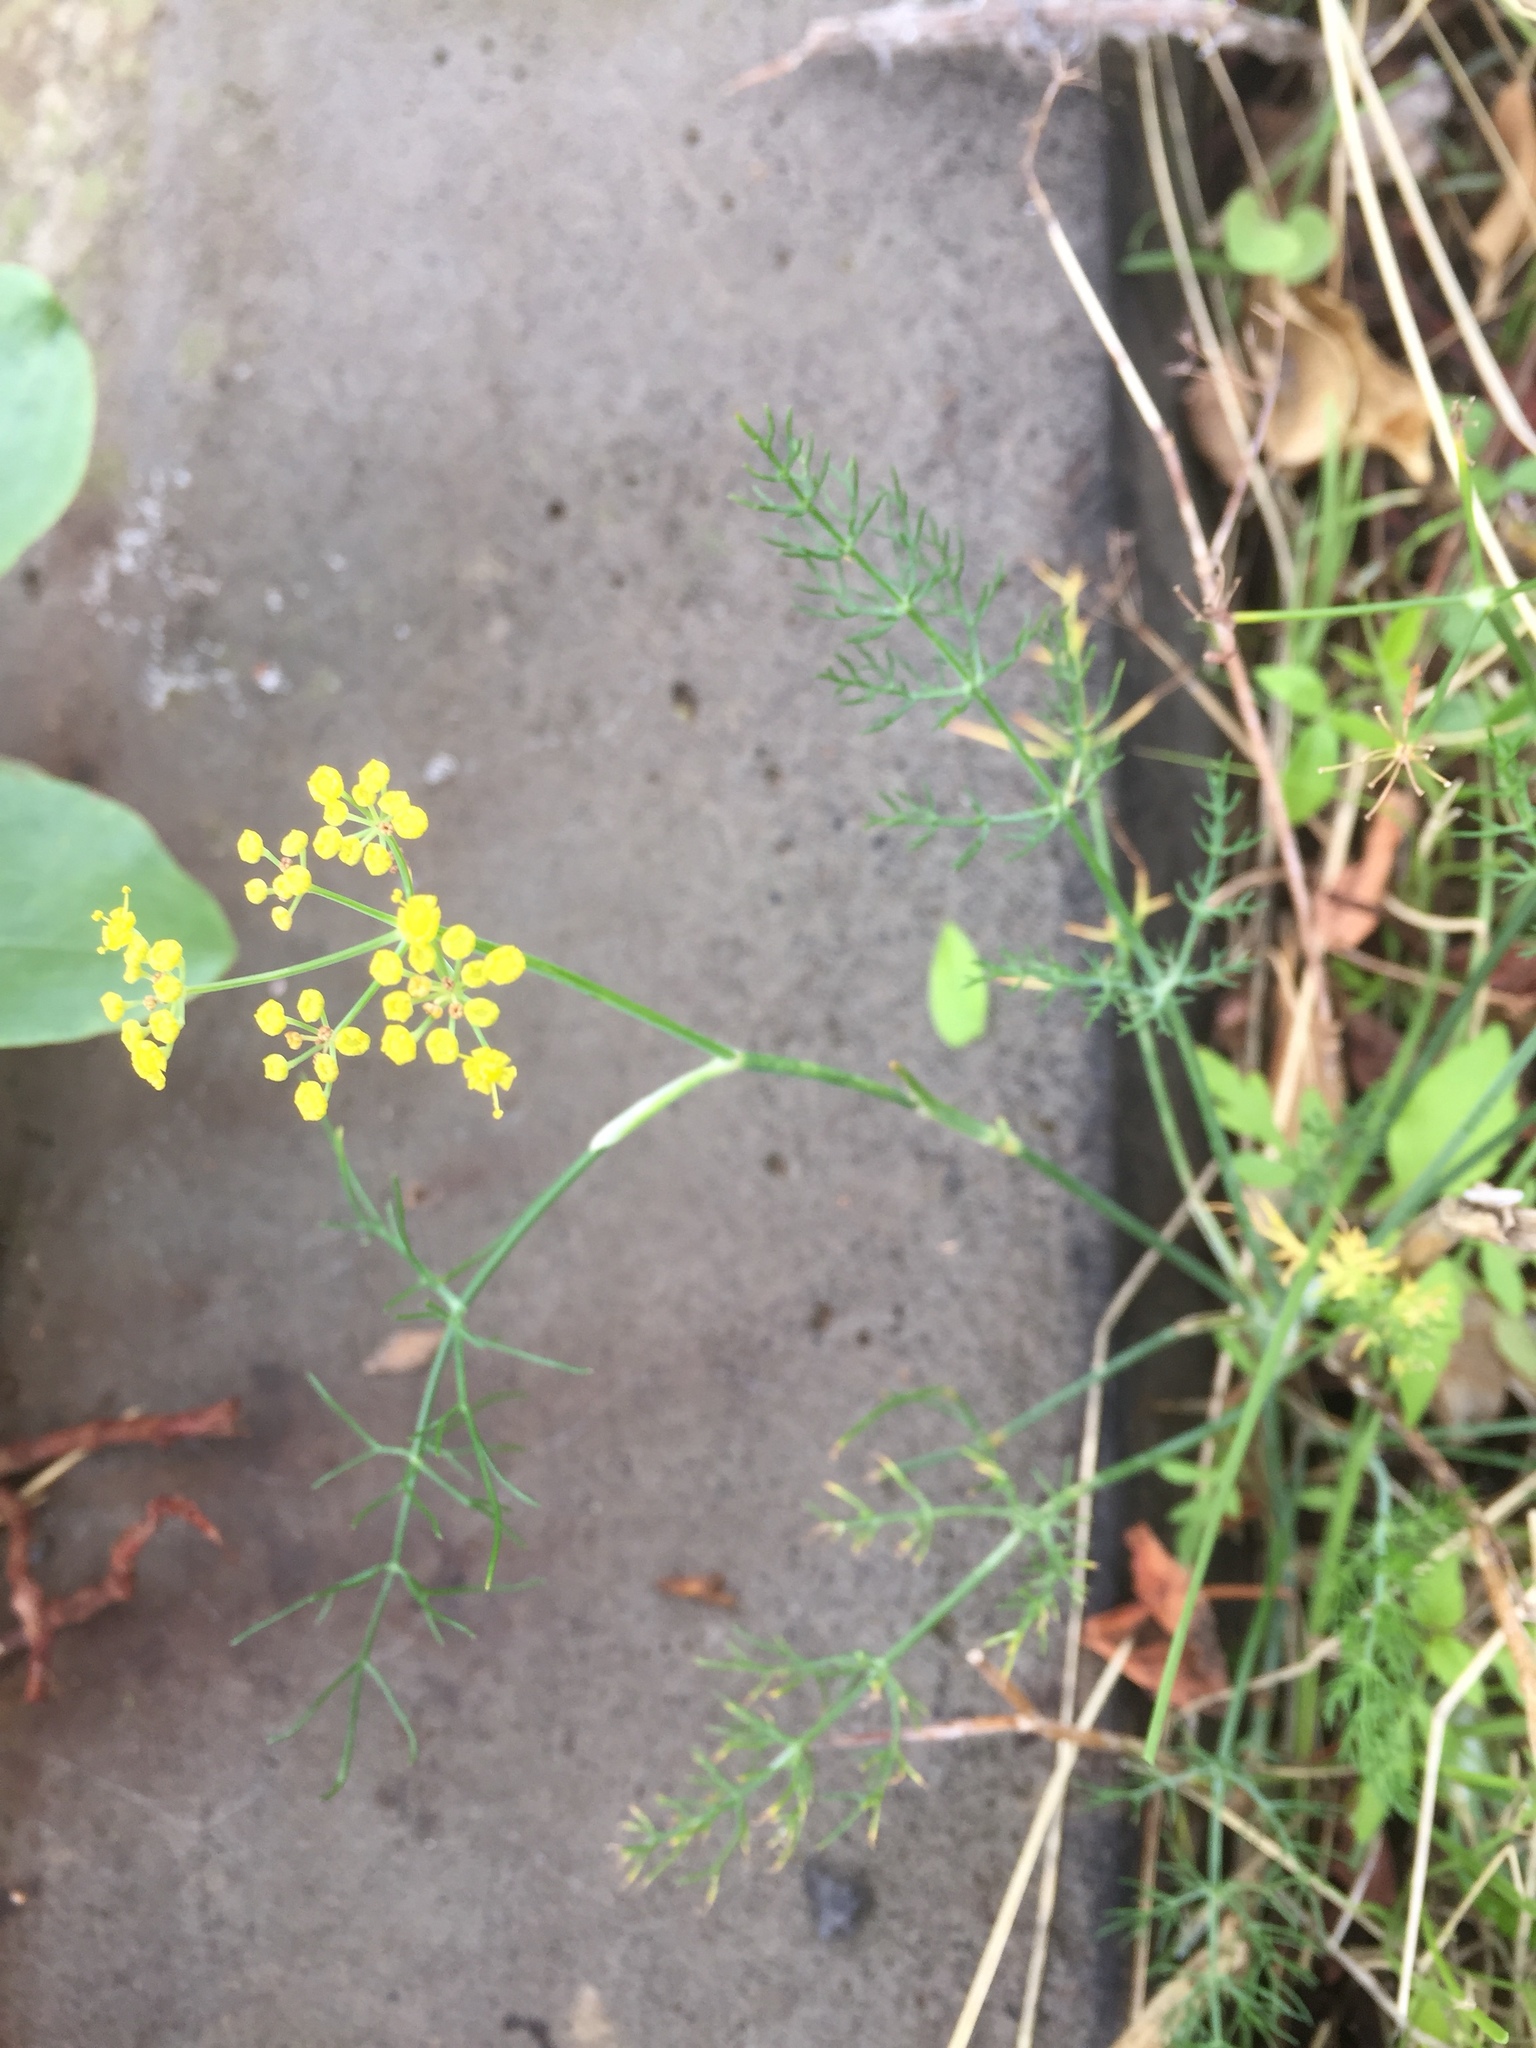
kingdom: Plantae
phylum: Tracheophyta
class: Magnoliopsida
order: Apiales
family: Apiaceae
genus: Foeniculum
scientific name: Foeniculum vulgare
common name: Fennel
